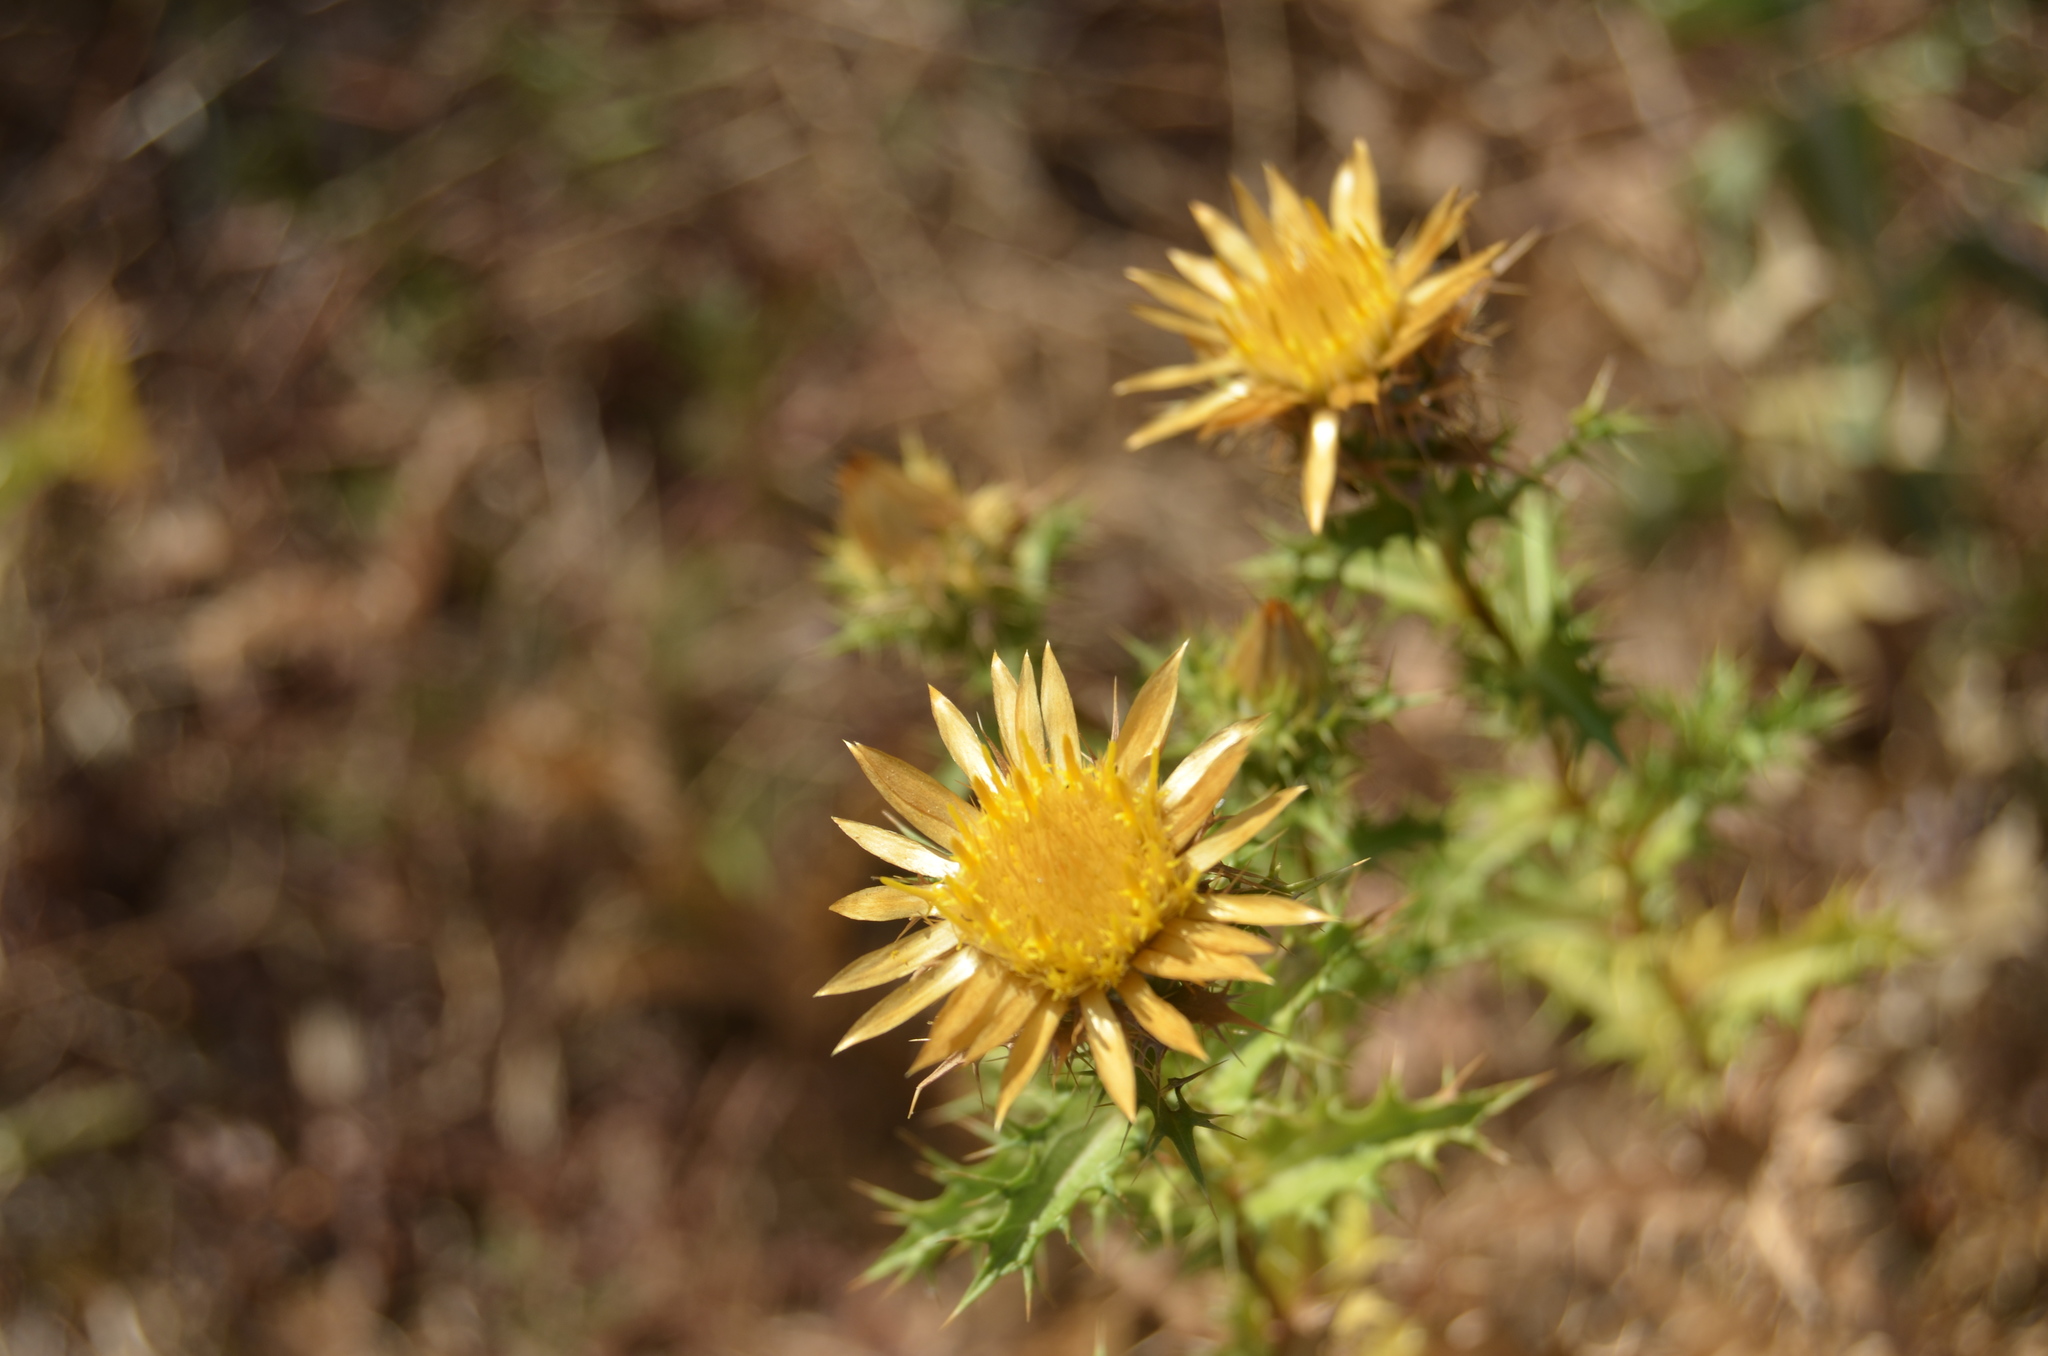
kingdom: Plantae
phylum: Tracheophyta
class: Magnoliopsida
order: Asterales
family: Asteraceae
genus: Carlina
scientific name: Carlina hispanica
